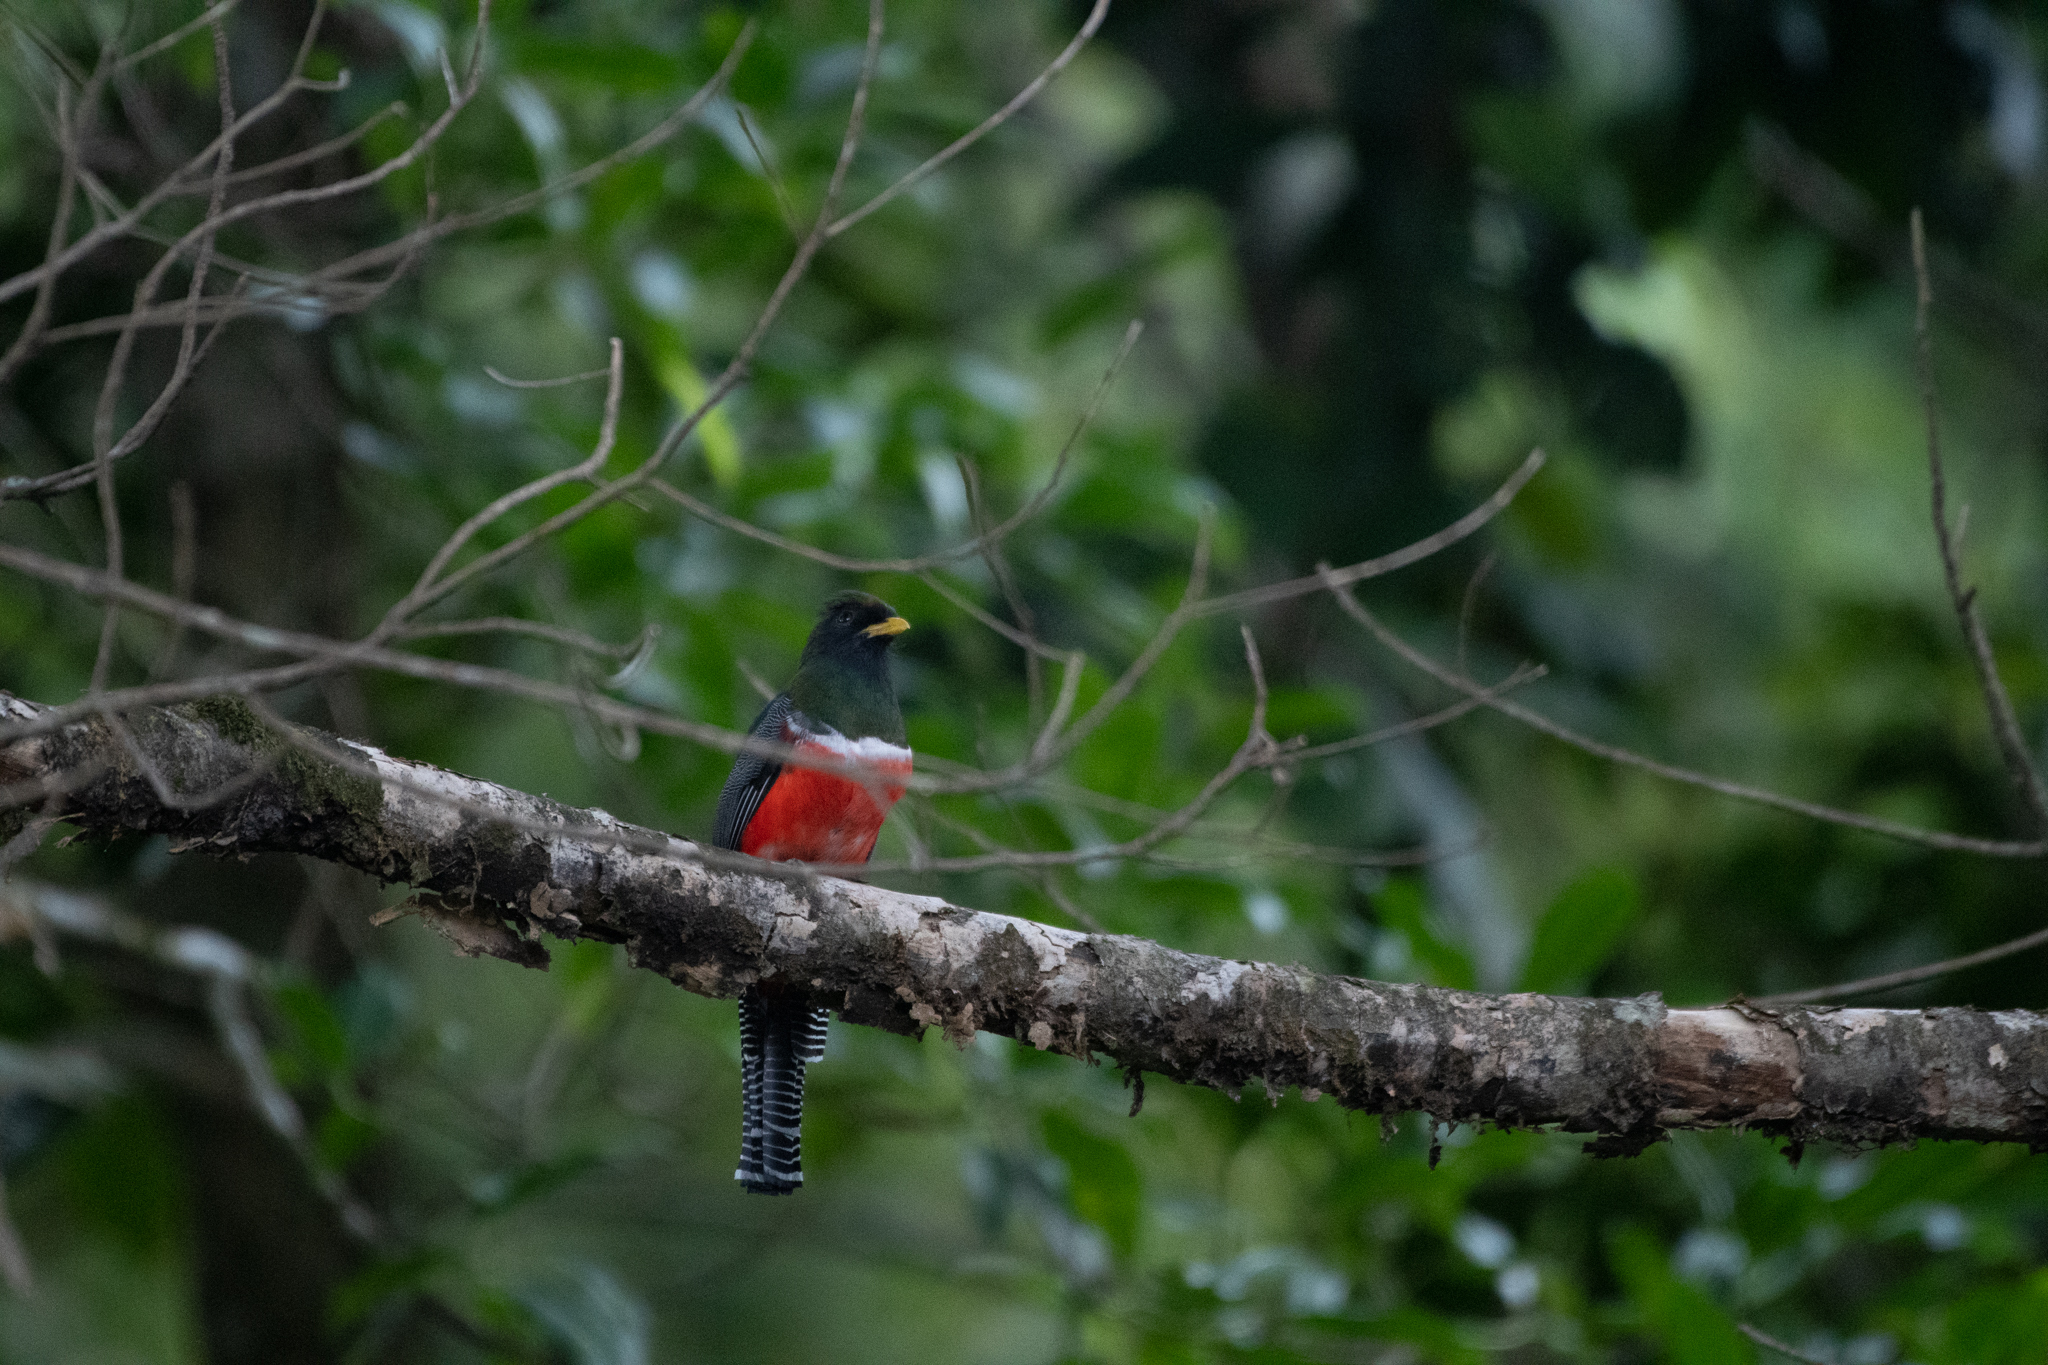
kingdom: Animalia
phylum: Chordata
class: Aves
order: Trogoniformes
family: Trogonidae
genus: Trogon
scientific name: Trogon collaris
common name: Collared trogon
